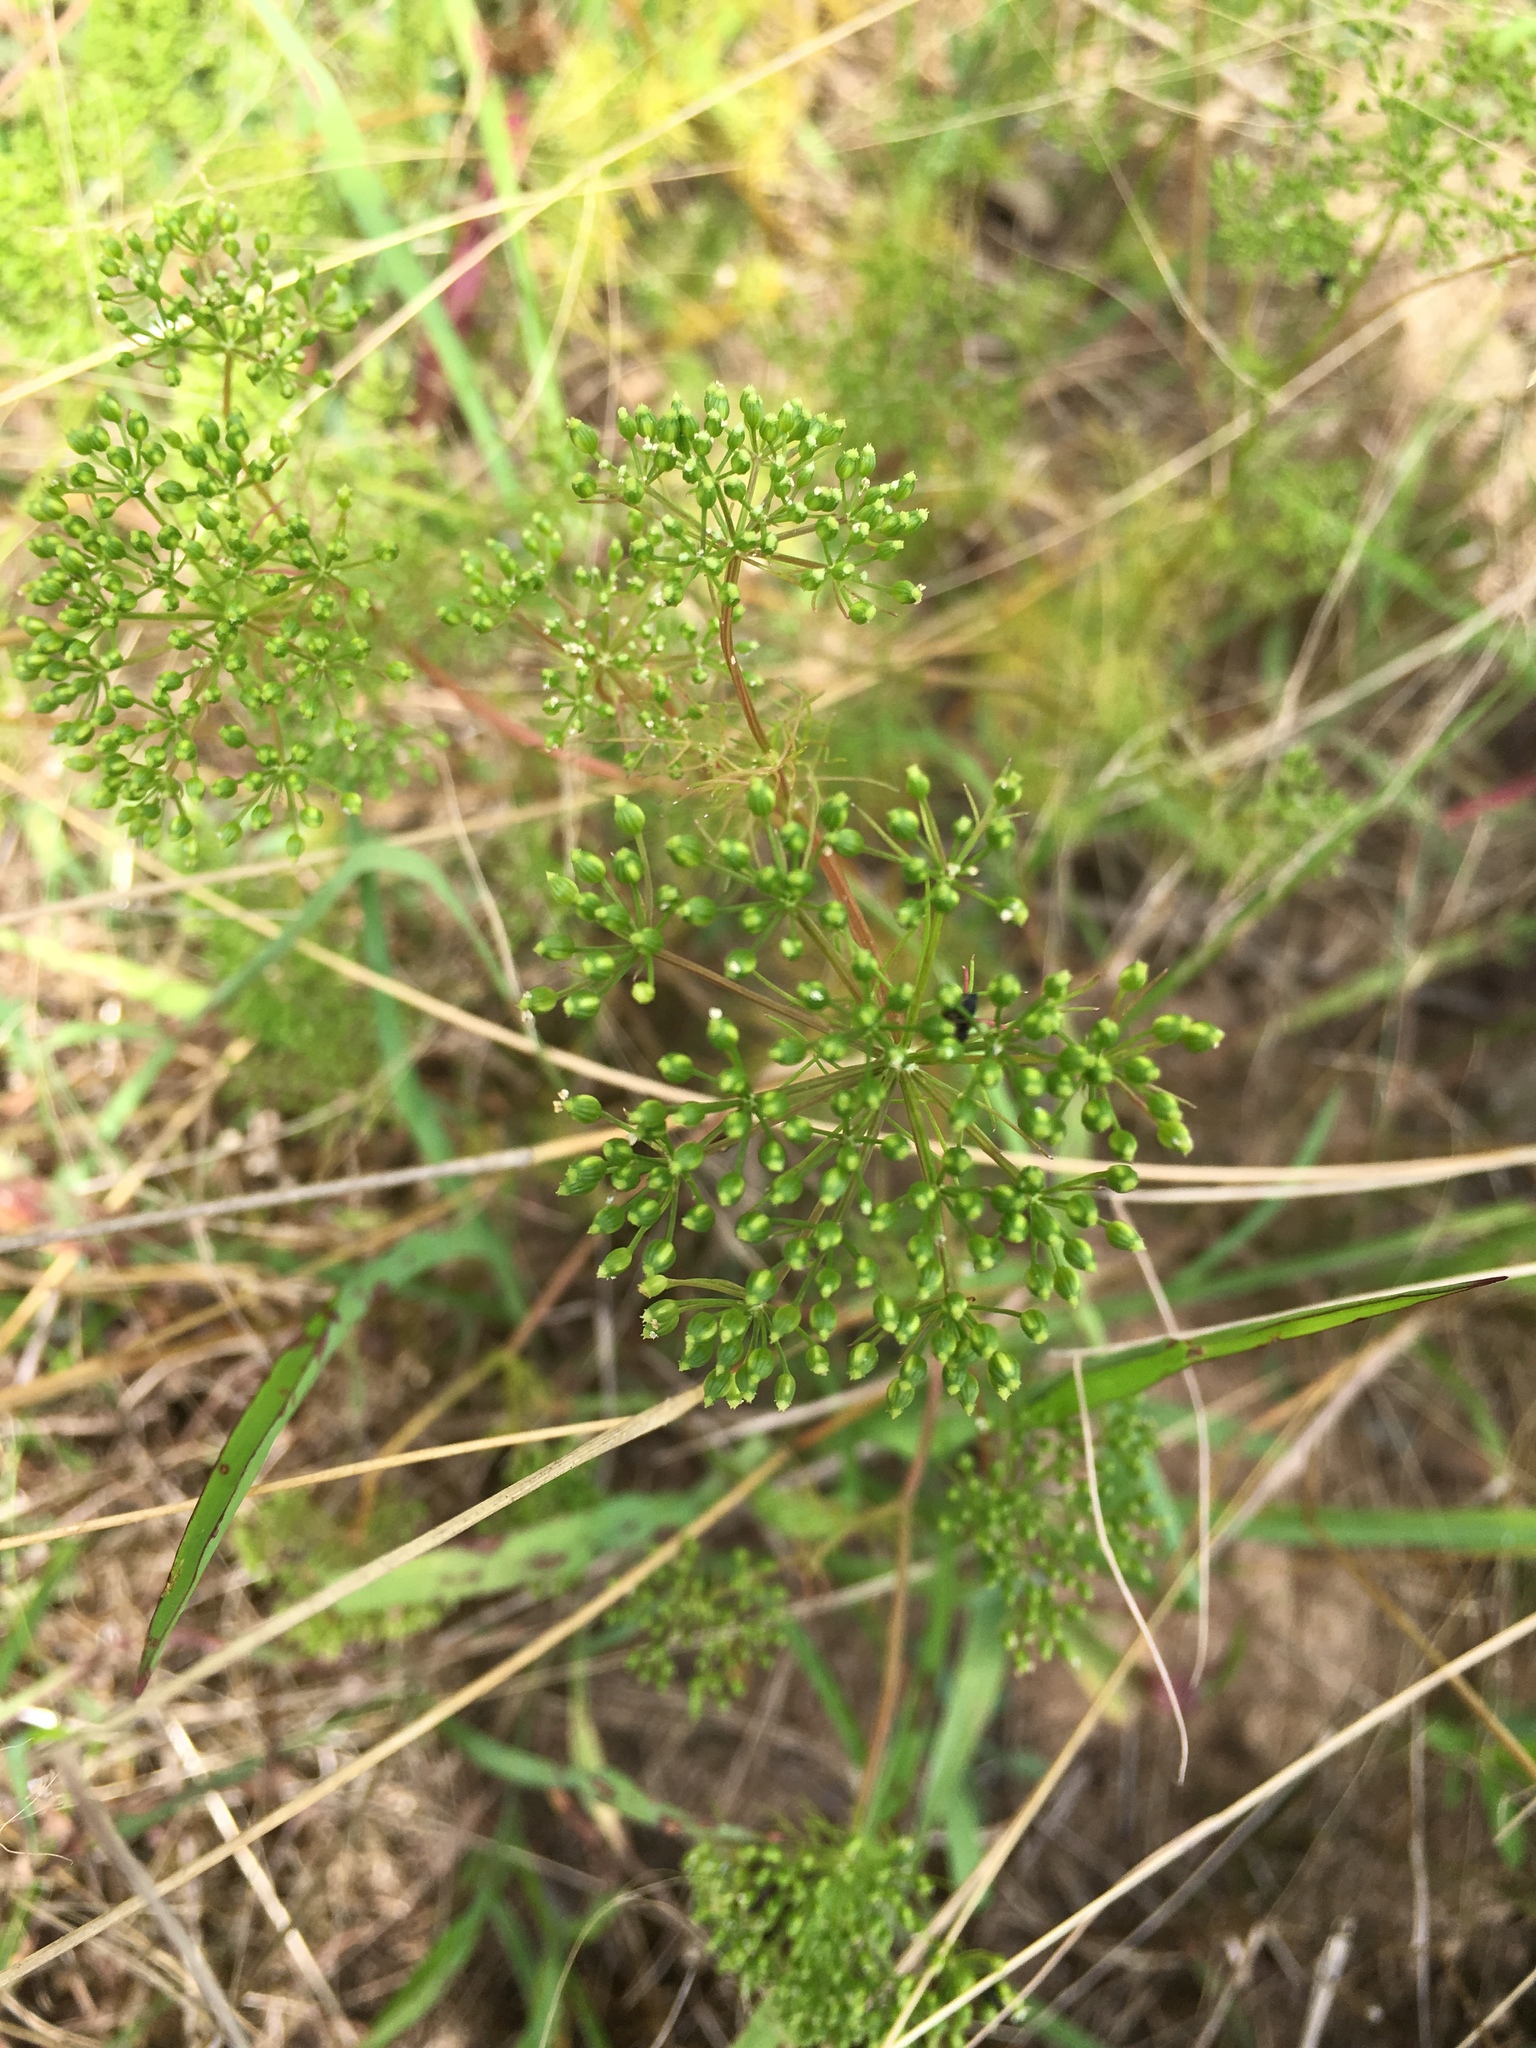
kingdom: Plantae
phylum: Tracheophyta
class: Magnoliopsida
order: Apiales
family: Apiaceae
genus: Ptilimnium
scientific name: Ptilimnium capillaceum
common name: Herbwilliam
